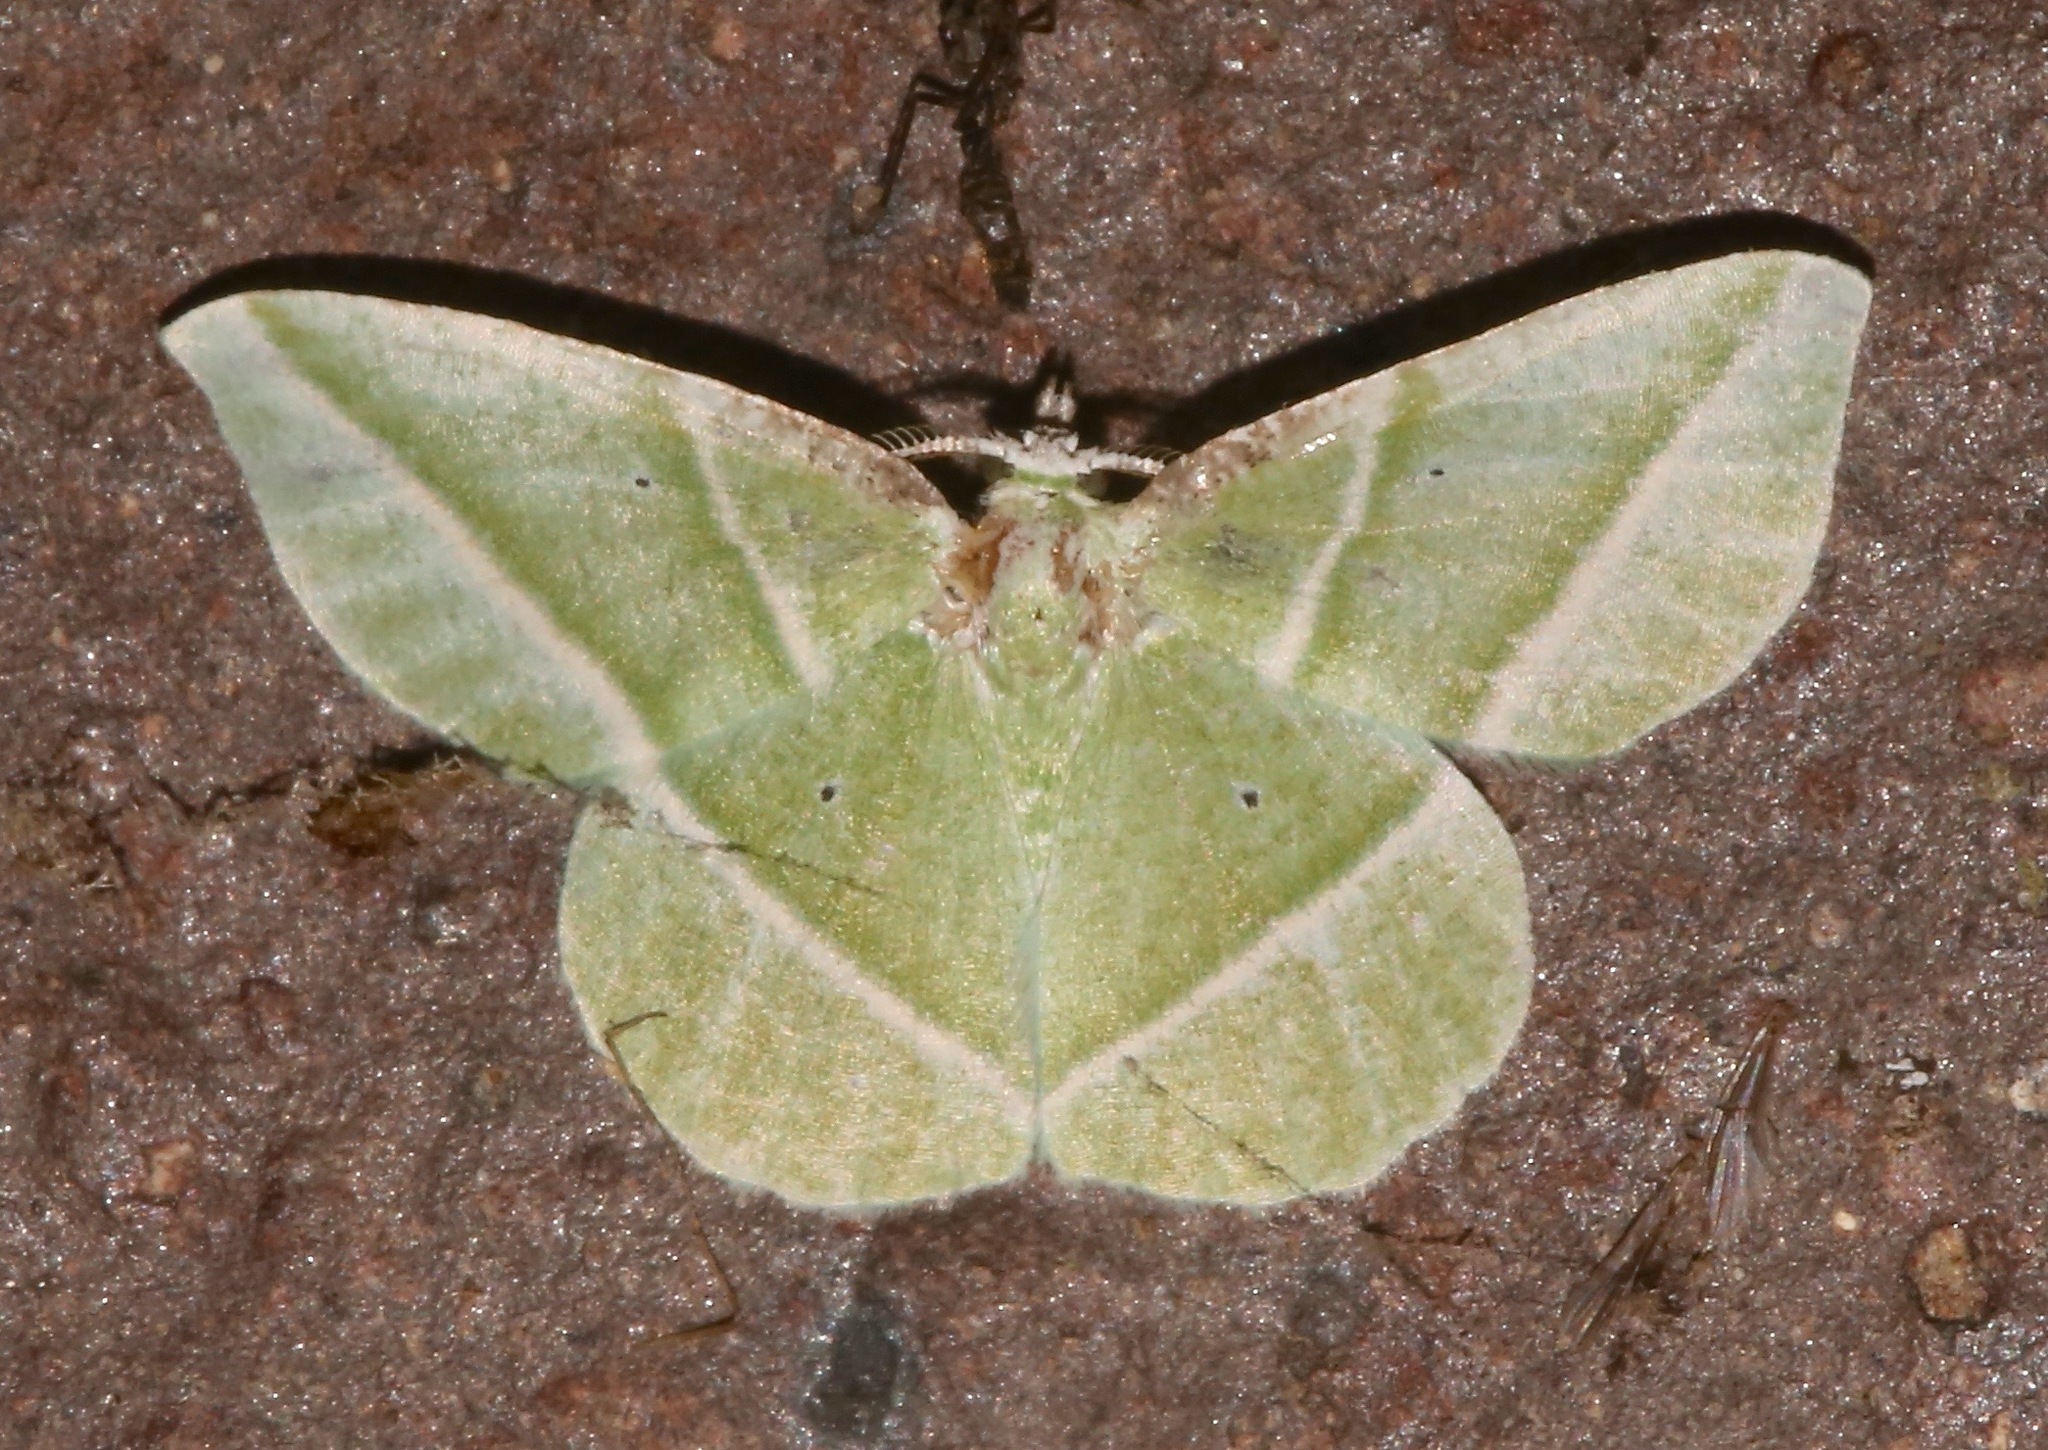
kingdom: Animalia
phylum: Arthropoda
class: Insecta
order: Lepidoptera
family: Geometridae
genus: Dichorda
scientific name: Dichorda iridaria
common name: Showy emerald
